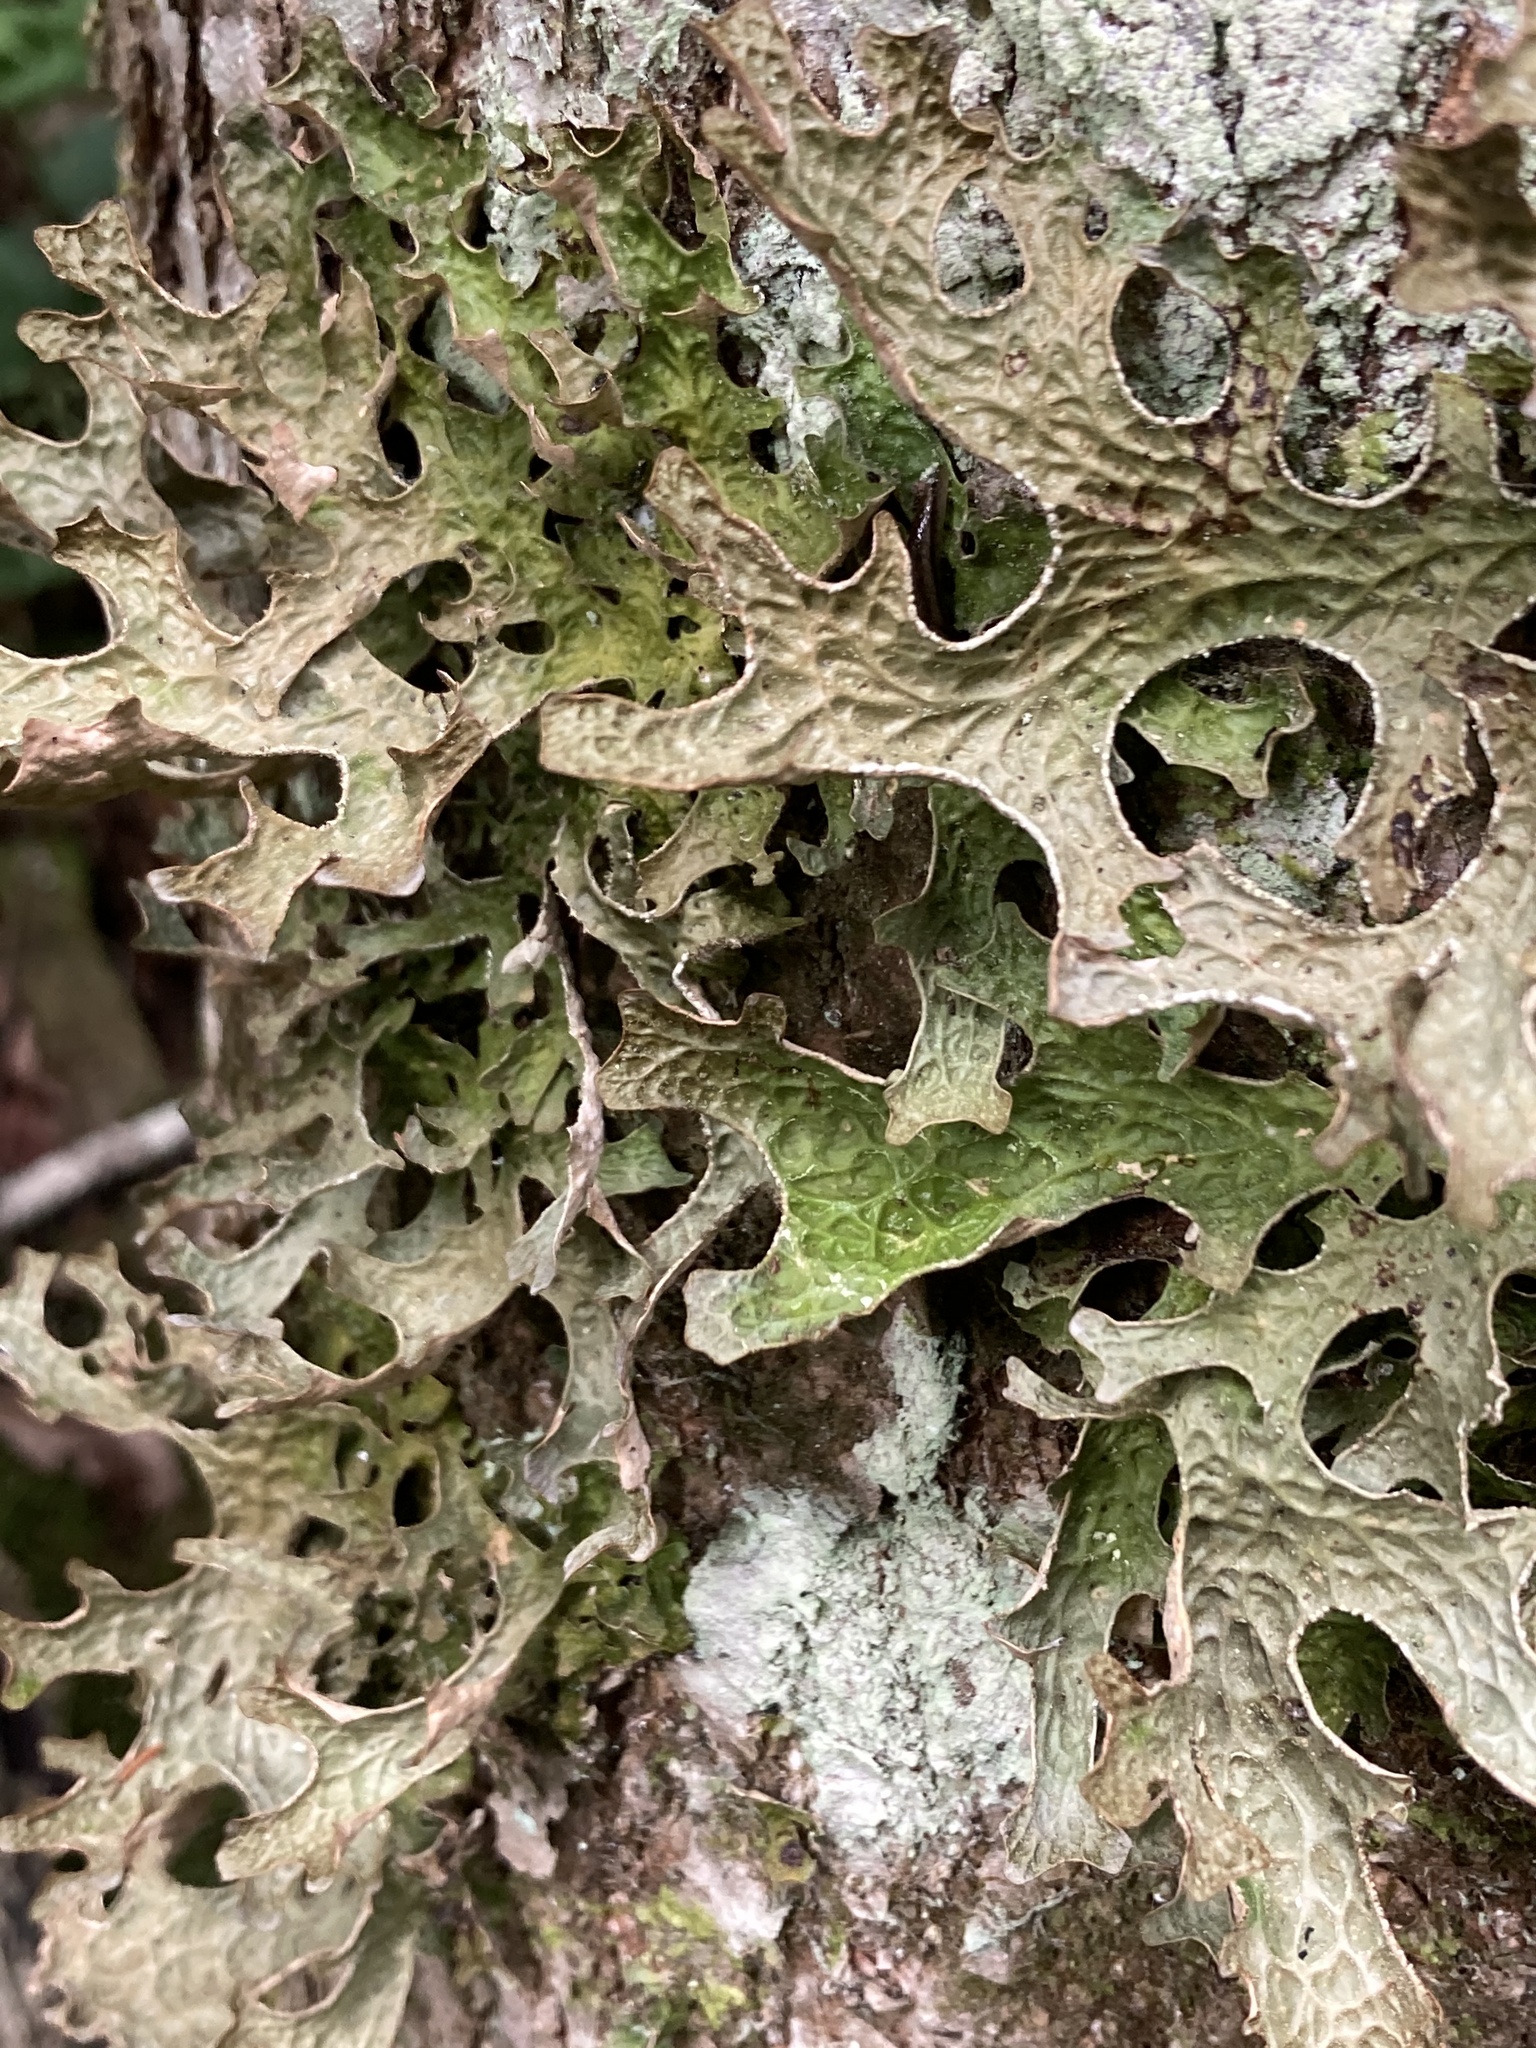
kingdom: Fungi
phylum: Ascomycota
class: Lecanoromycetes
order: Peltigerales
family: Lobariaceae
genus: Lobaria
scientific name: Lobaria pulmonaria
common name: Lungwort
